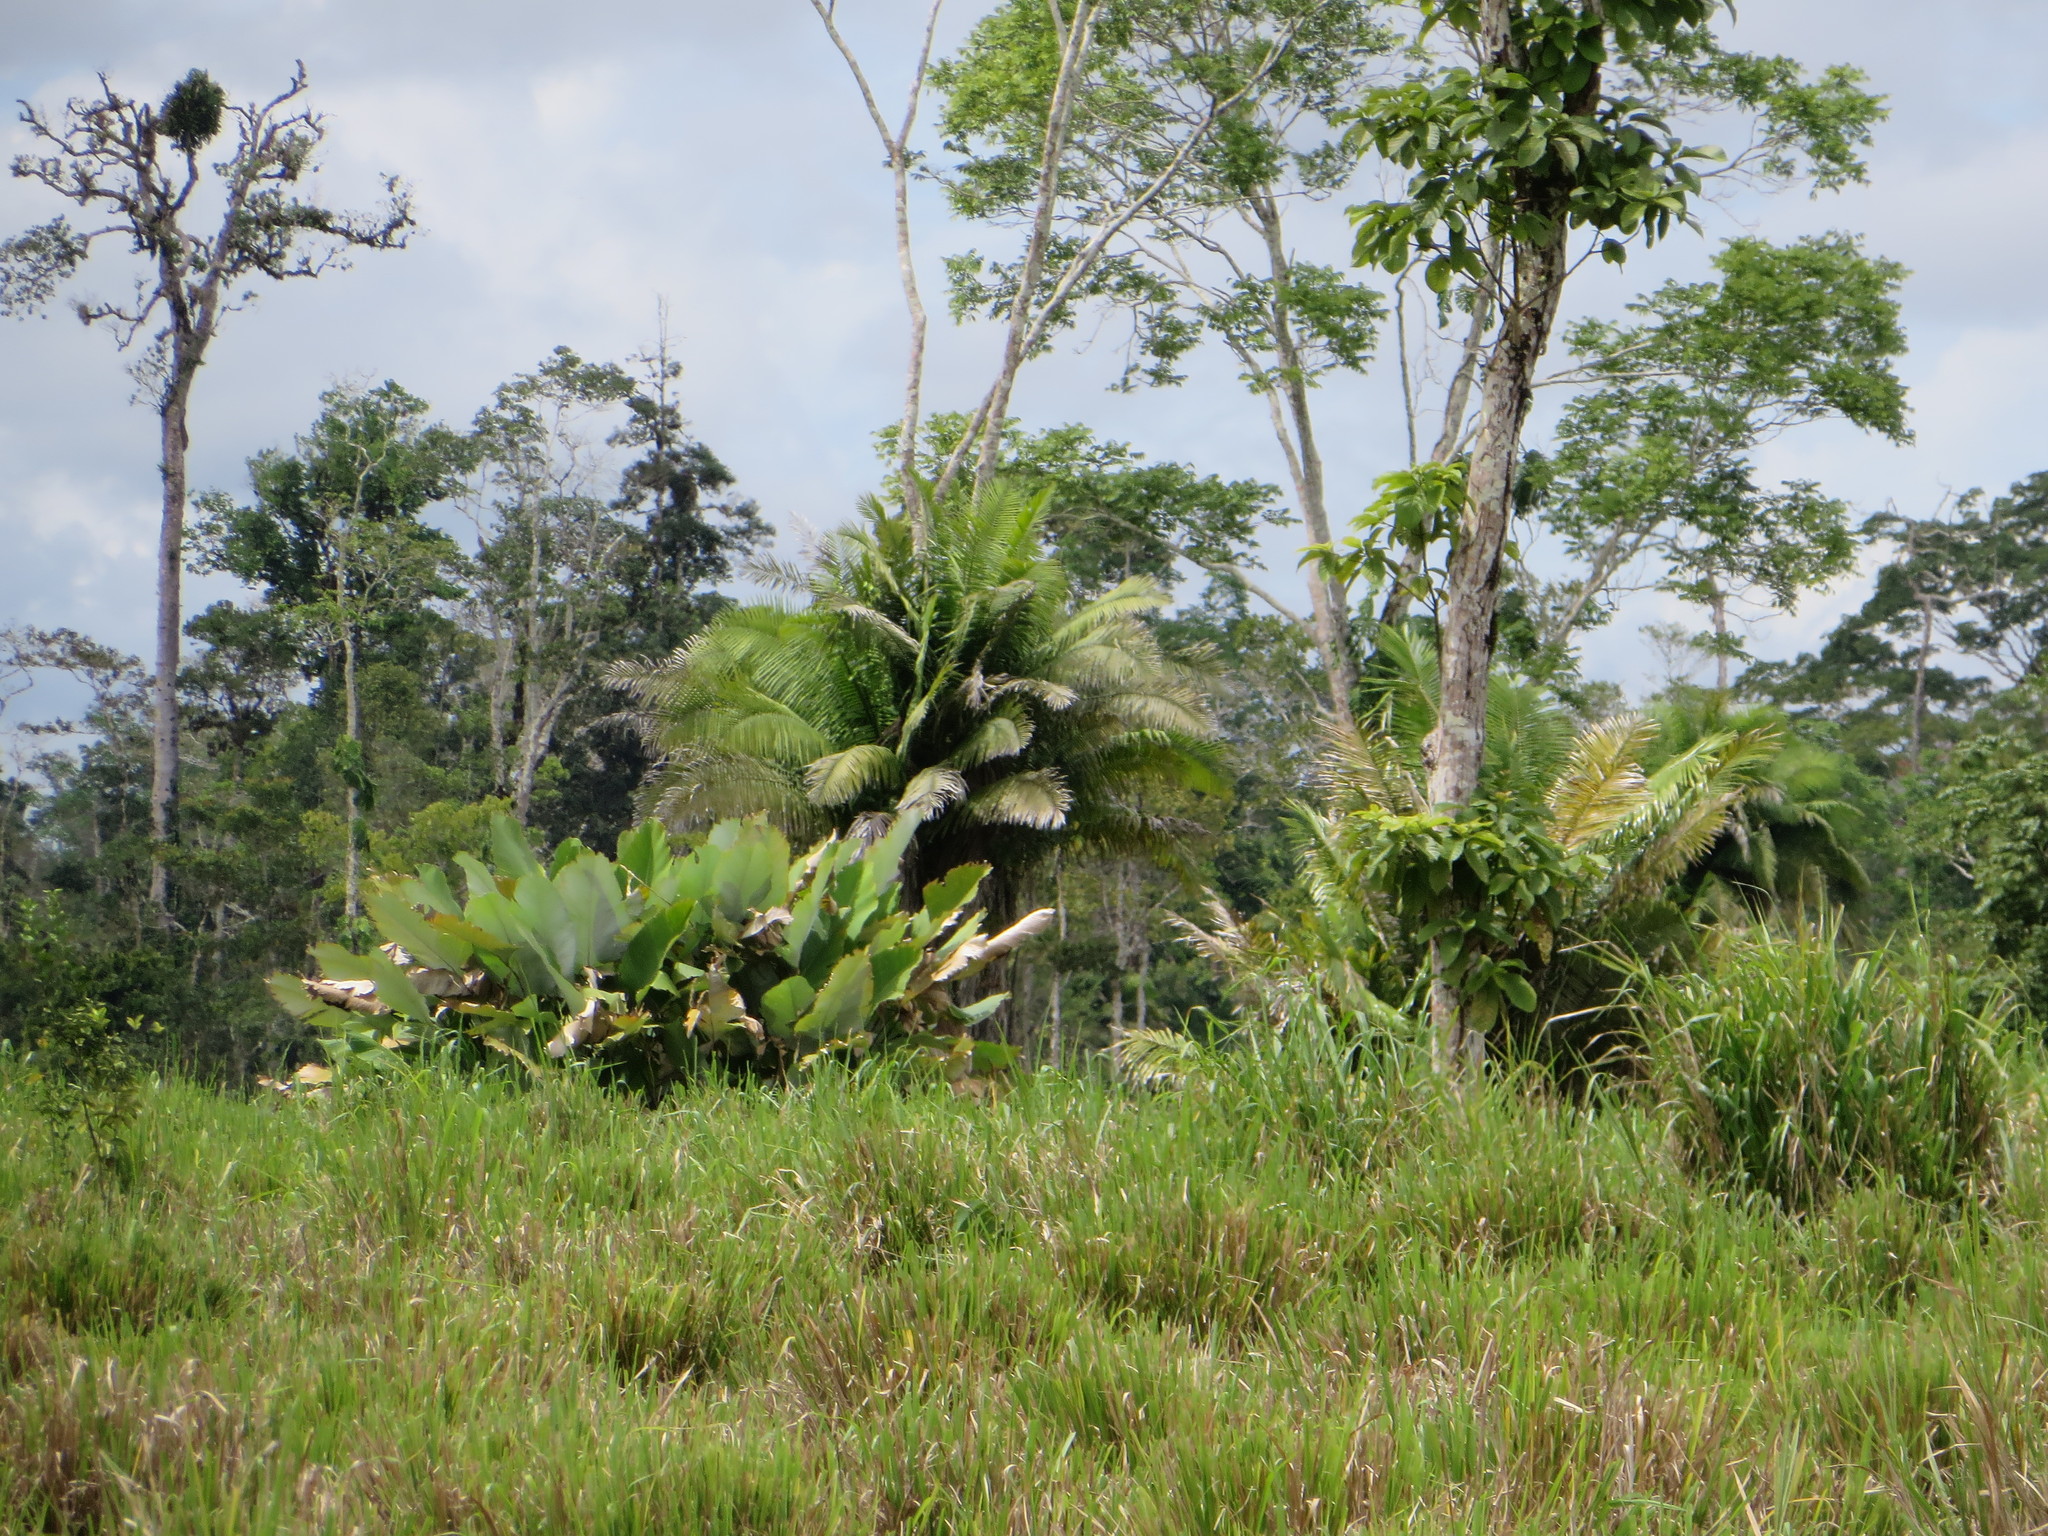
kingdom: Plantae
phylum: Tracheophyta
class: Liliopsida
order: Arecales
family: Arecaceae
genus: Phytelephas
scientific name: Phytelephas tenuicaulis
